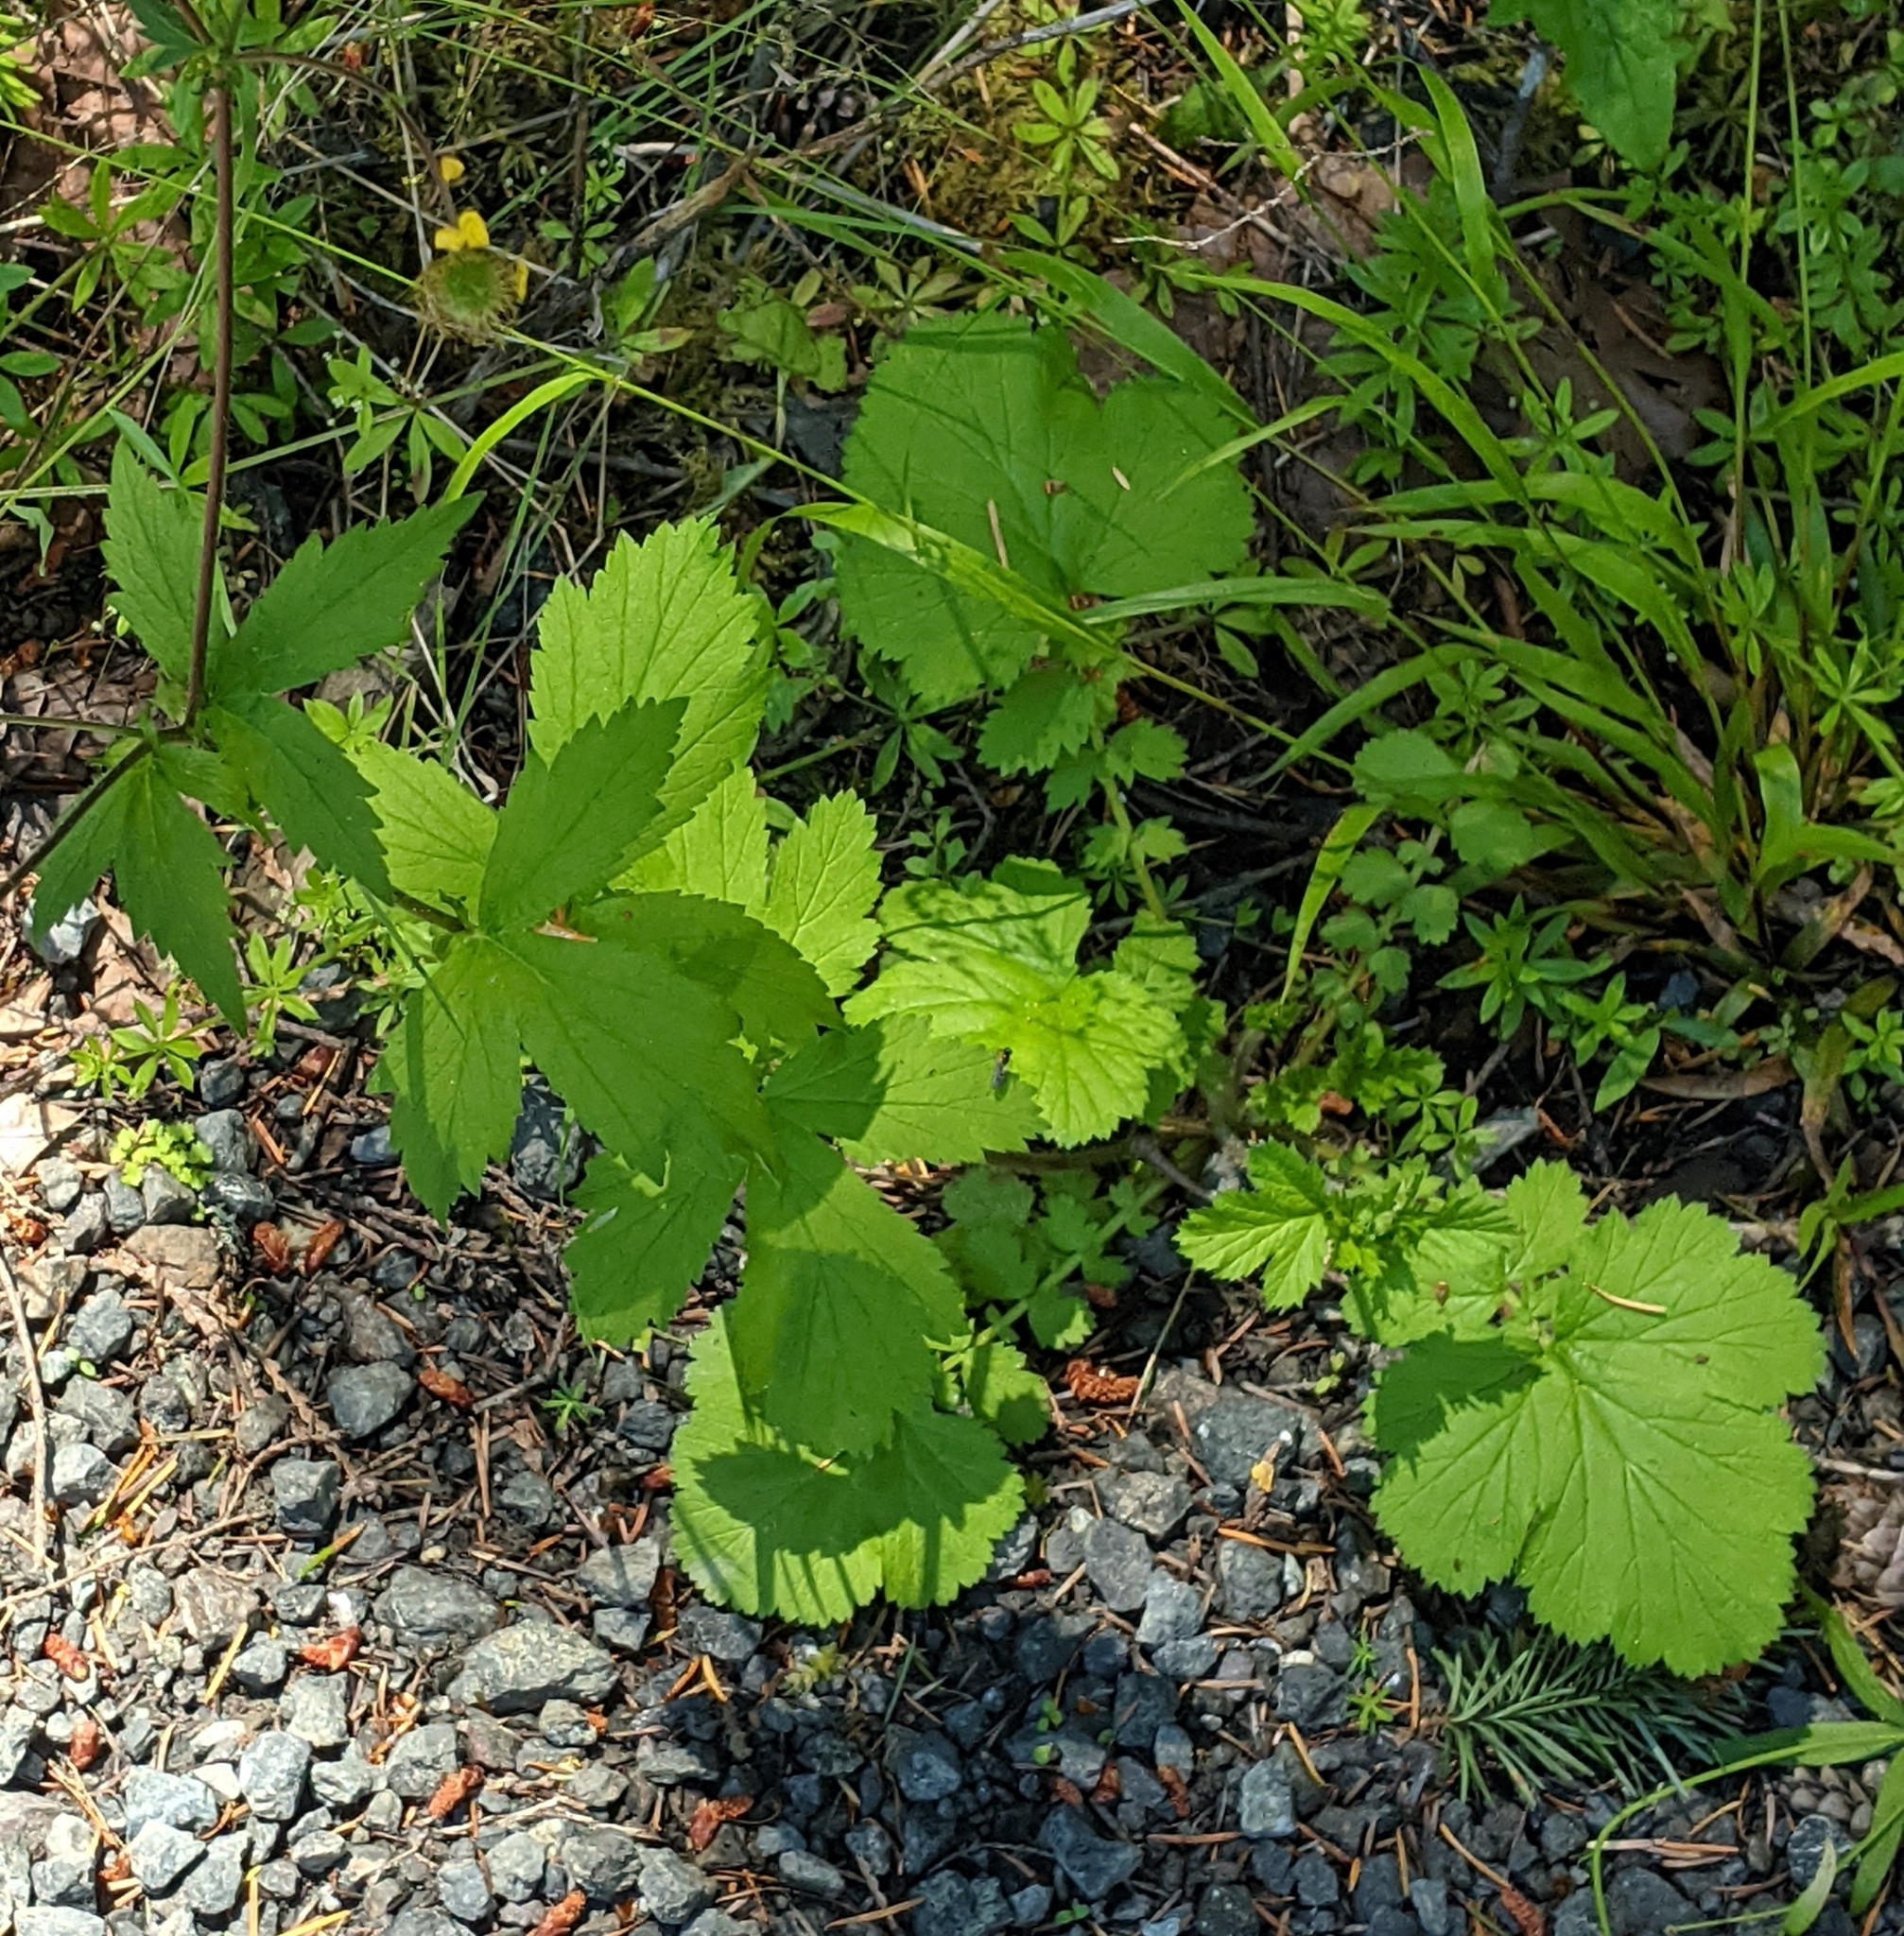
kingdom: Plantae
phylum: Tracheophyta
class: Magnoliopsida
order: Rosales
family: Rosaceae
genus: Geum
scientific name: Geum macrophyllum
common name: Large-leaved avens
